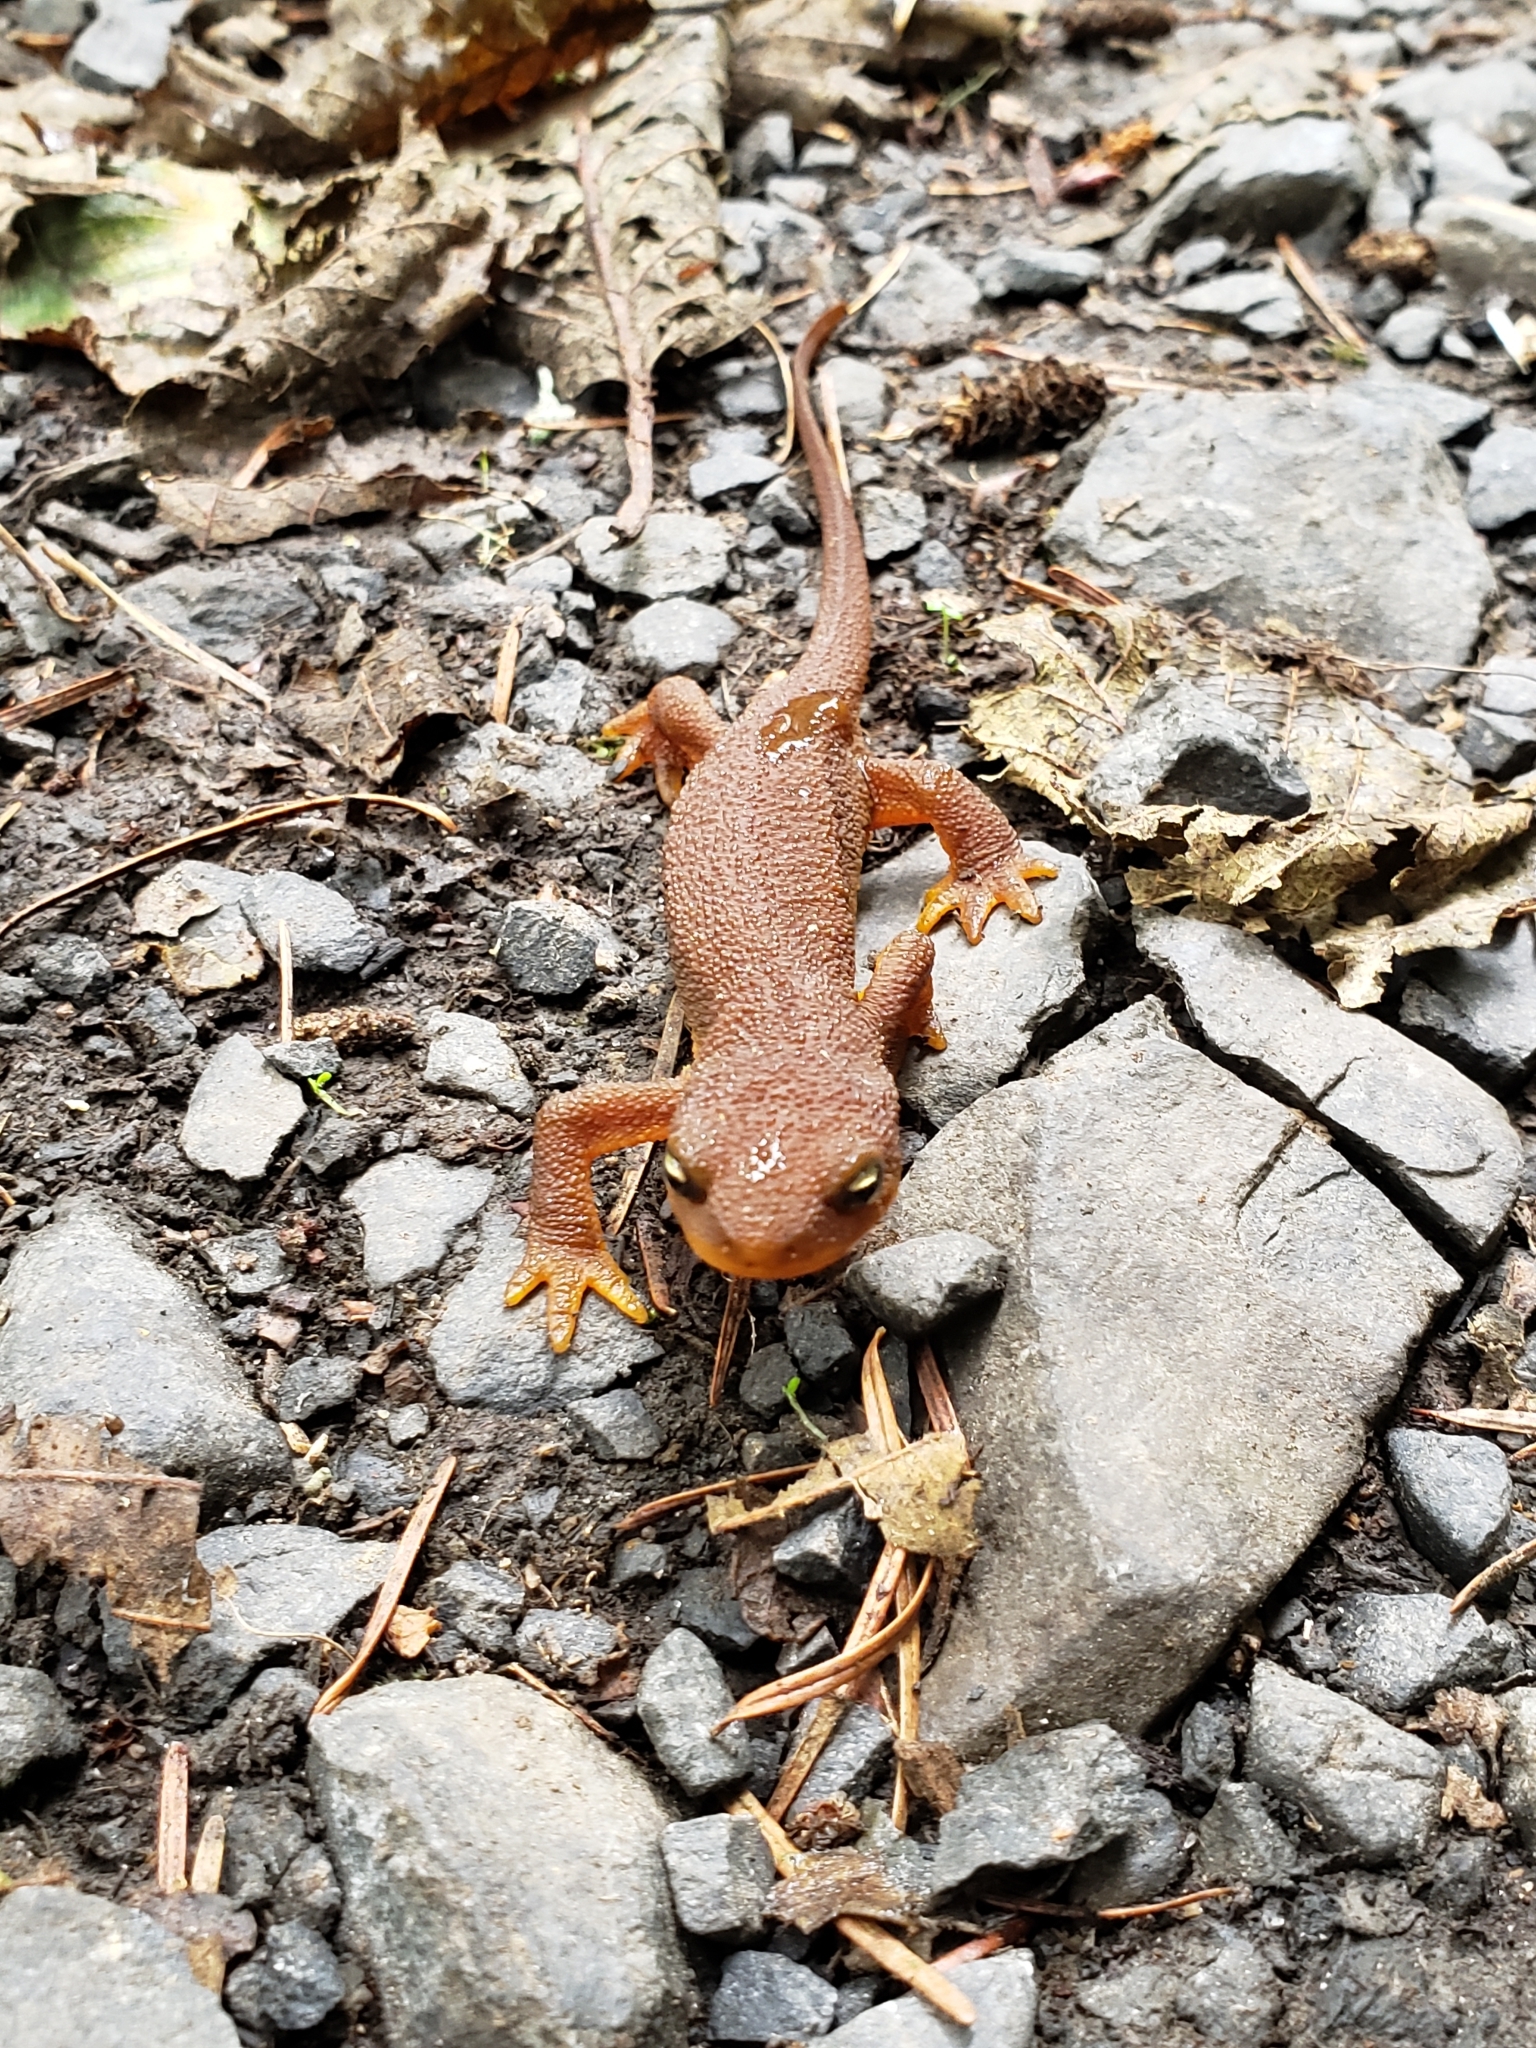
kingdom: Animalia
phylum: Chordata
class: Amphibia
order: Caudata
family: Salamandridae
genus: Taricha
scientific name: Taricha granulosa
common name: Roughskin newt
